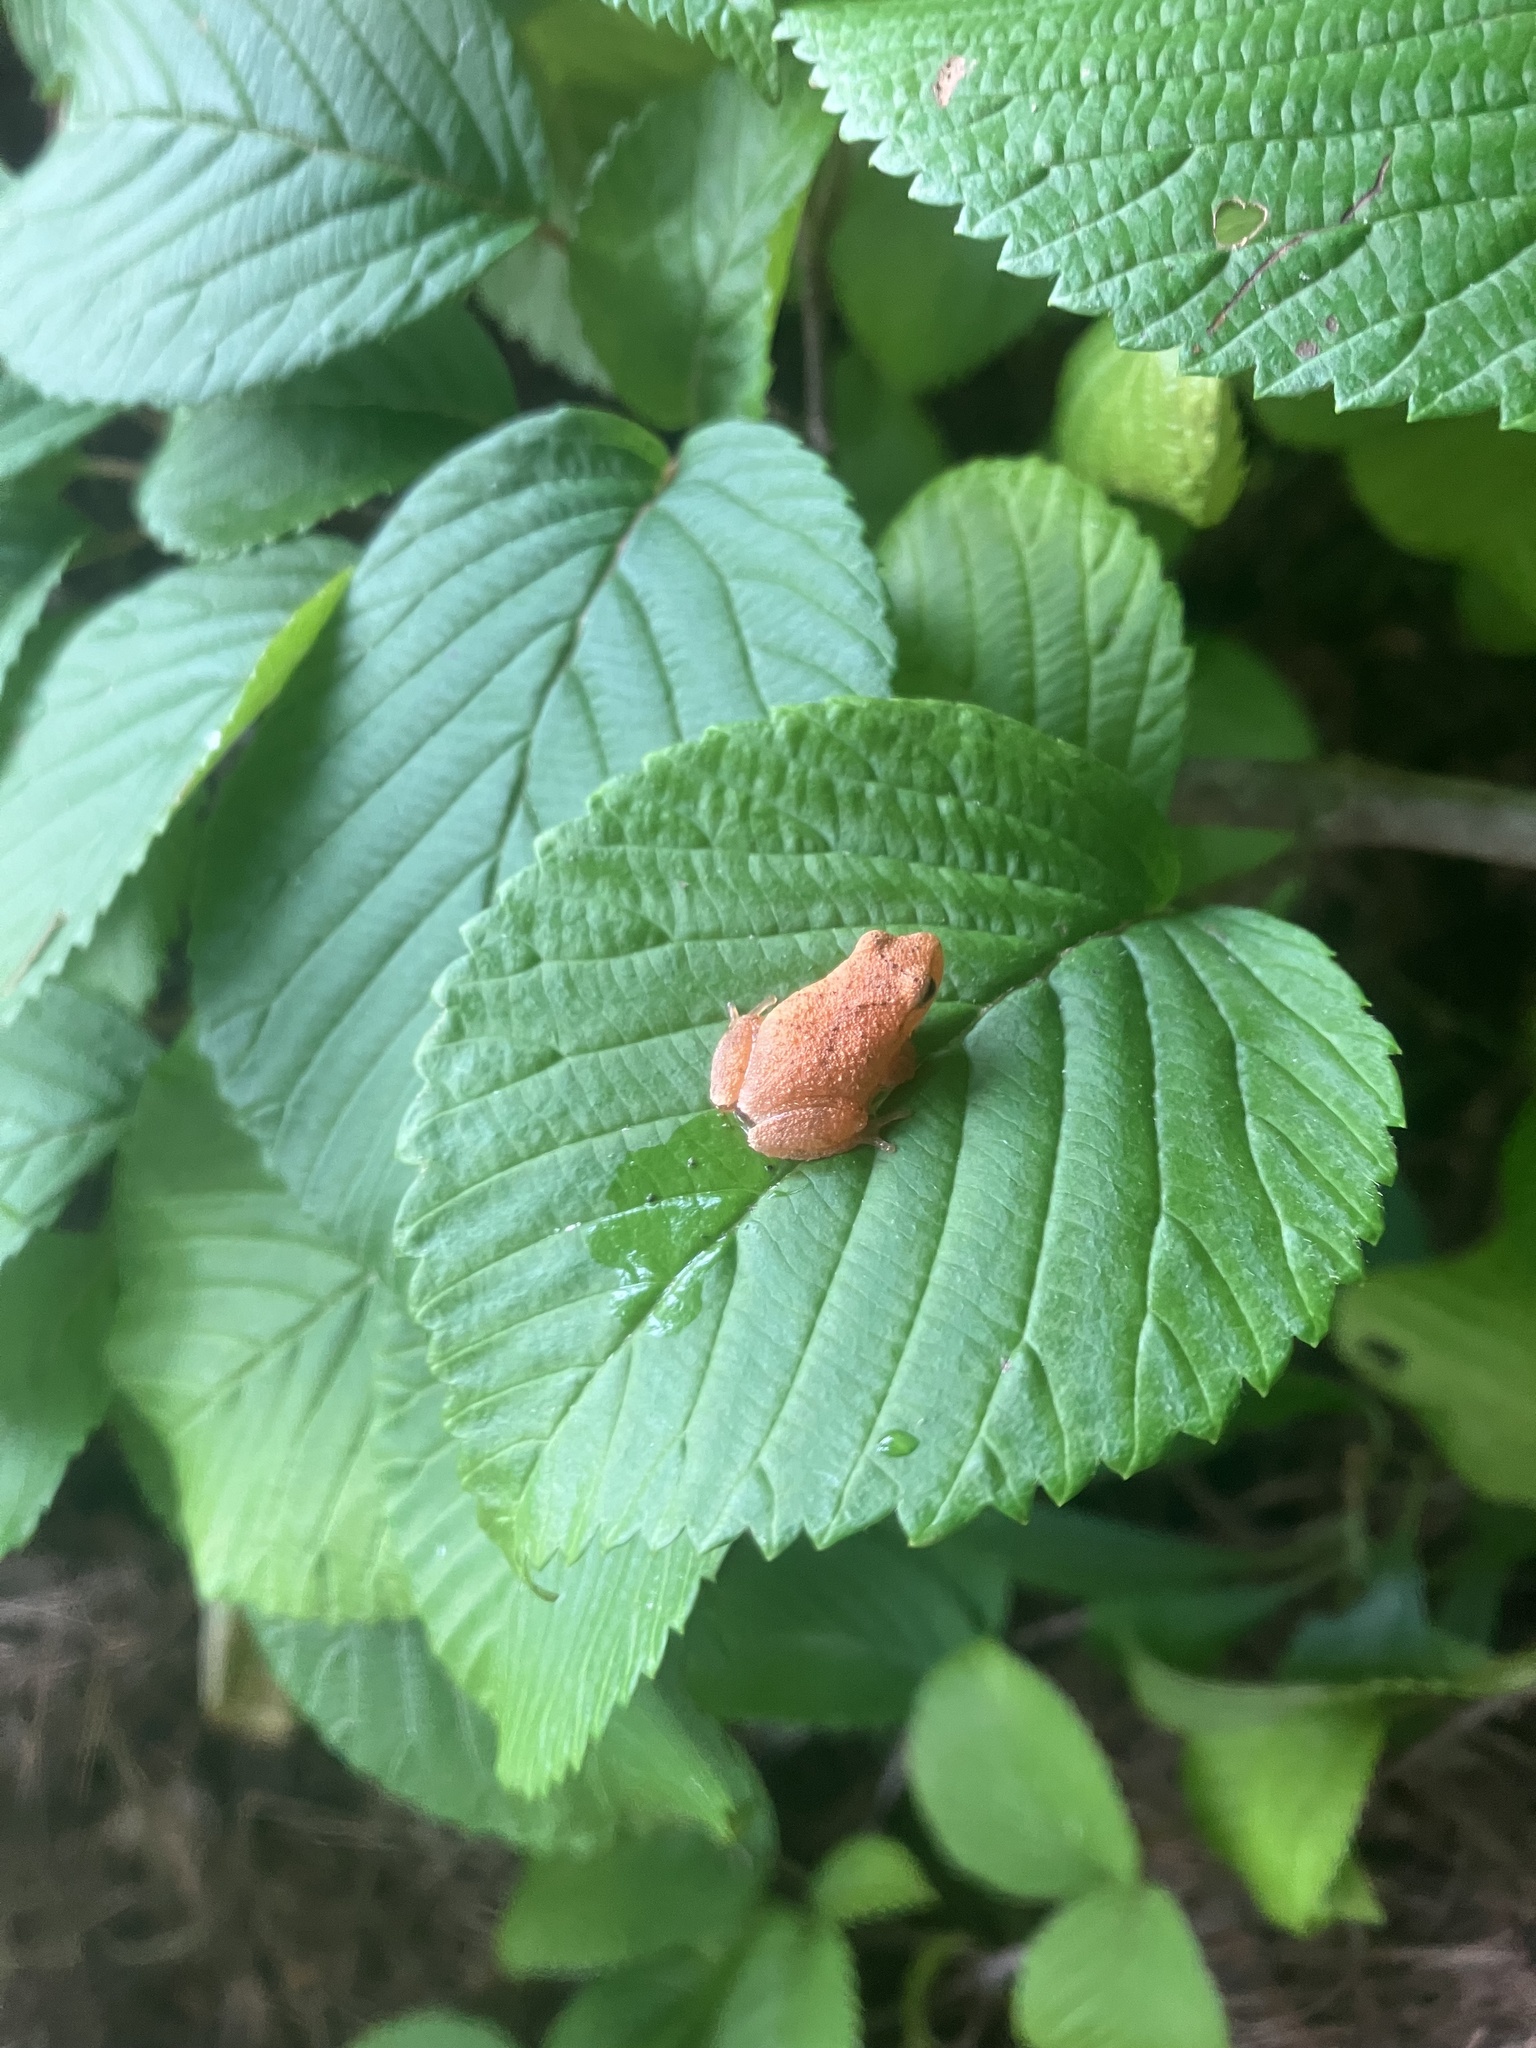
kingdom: Animalia
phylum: Chordata
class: Amphibia
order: Anura
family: Hylidae
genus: Pseudacris
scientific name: Pseudacris crucifer
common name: Spring peeper
